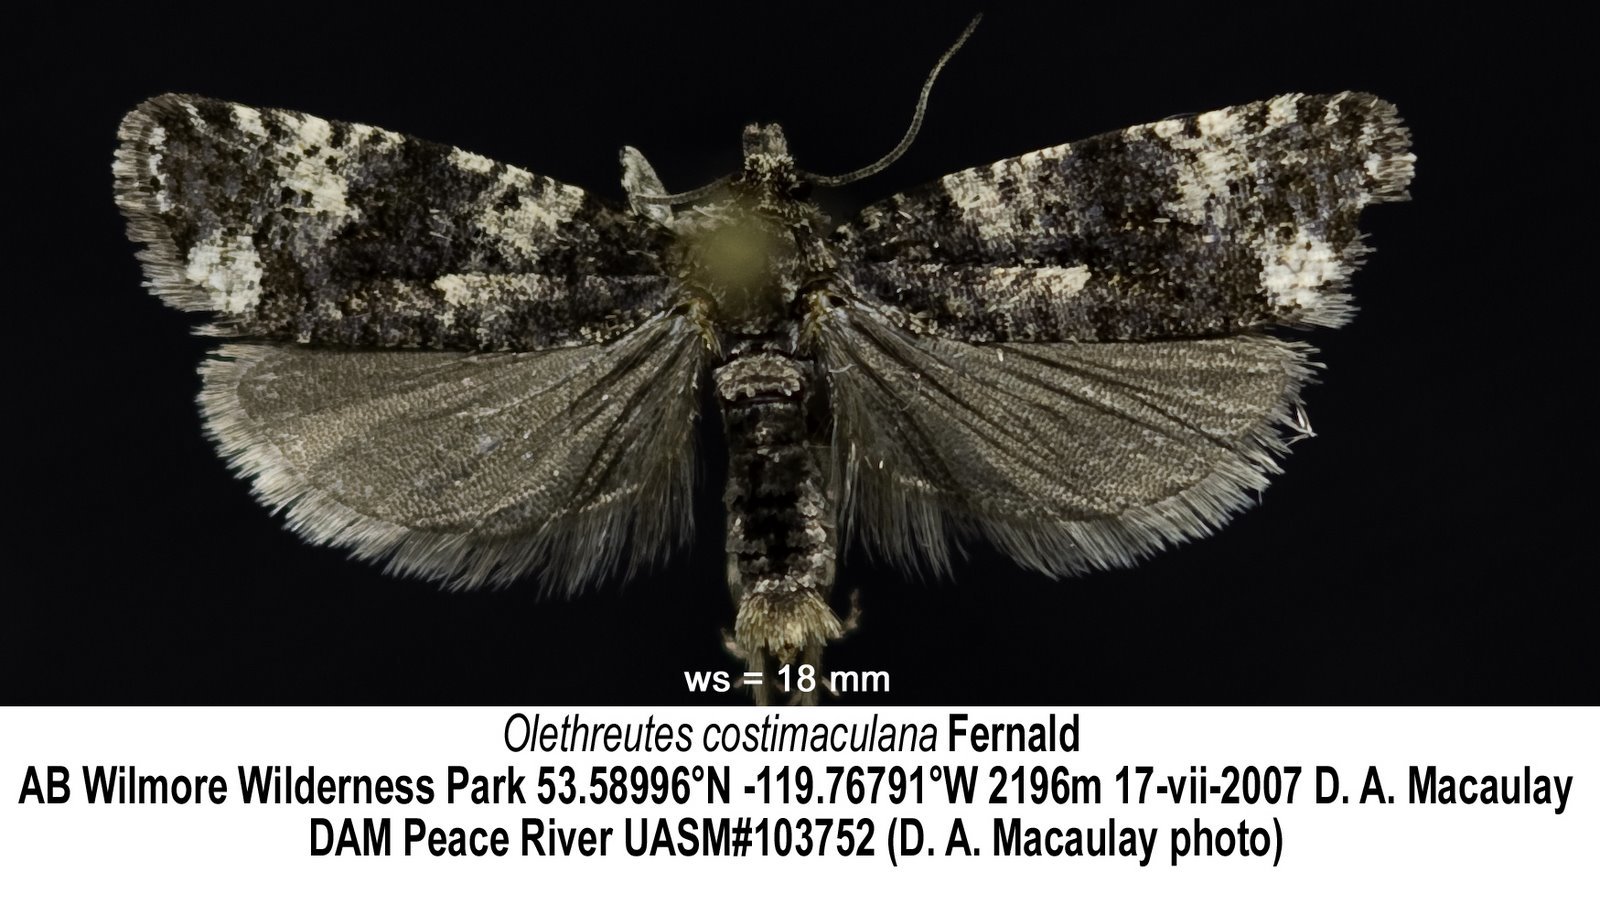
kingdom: Animalia
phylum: Arthropoda
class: Insecta
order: Lepidoptera
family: Tortricidae
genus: Olethreutes
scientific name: Olethreutes costimaculana
